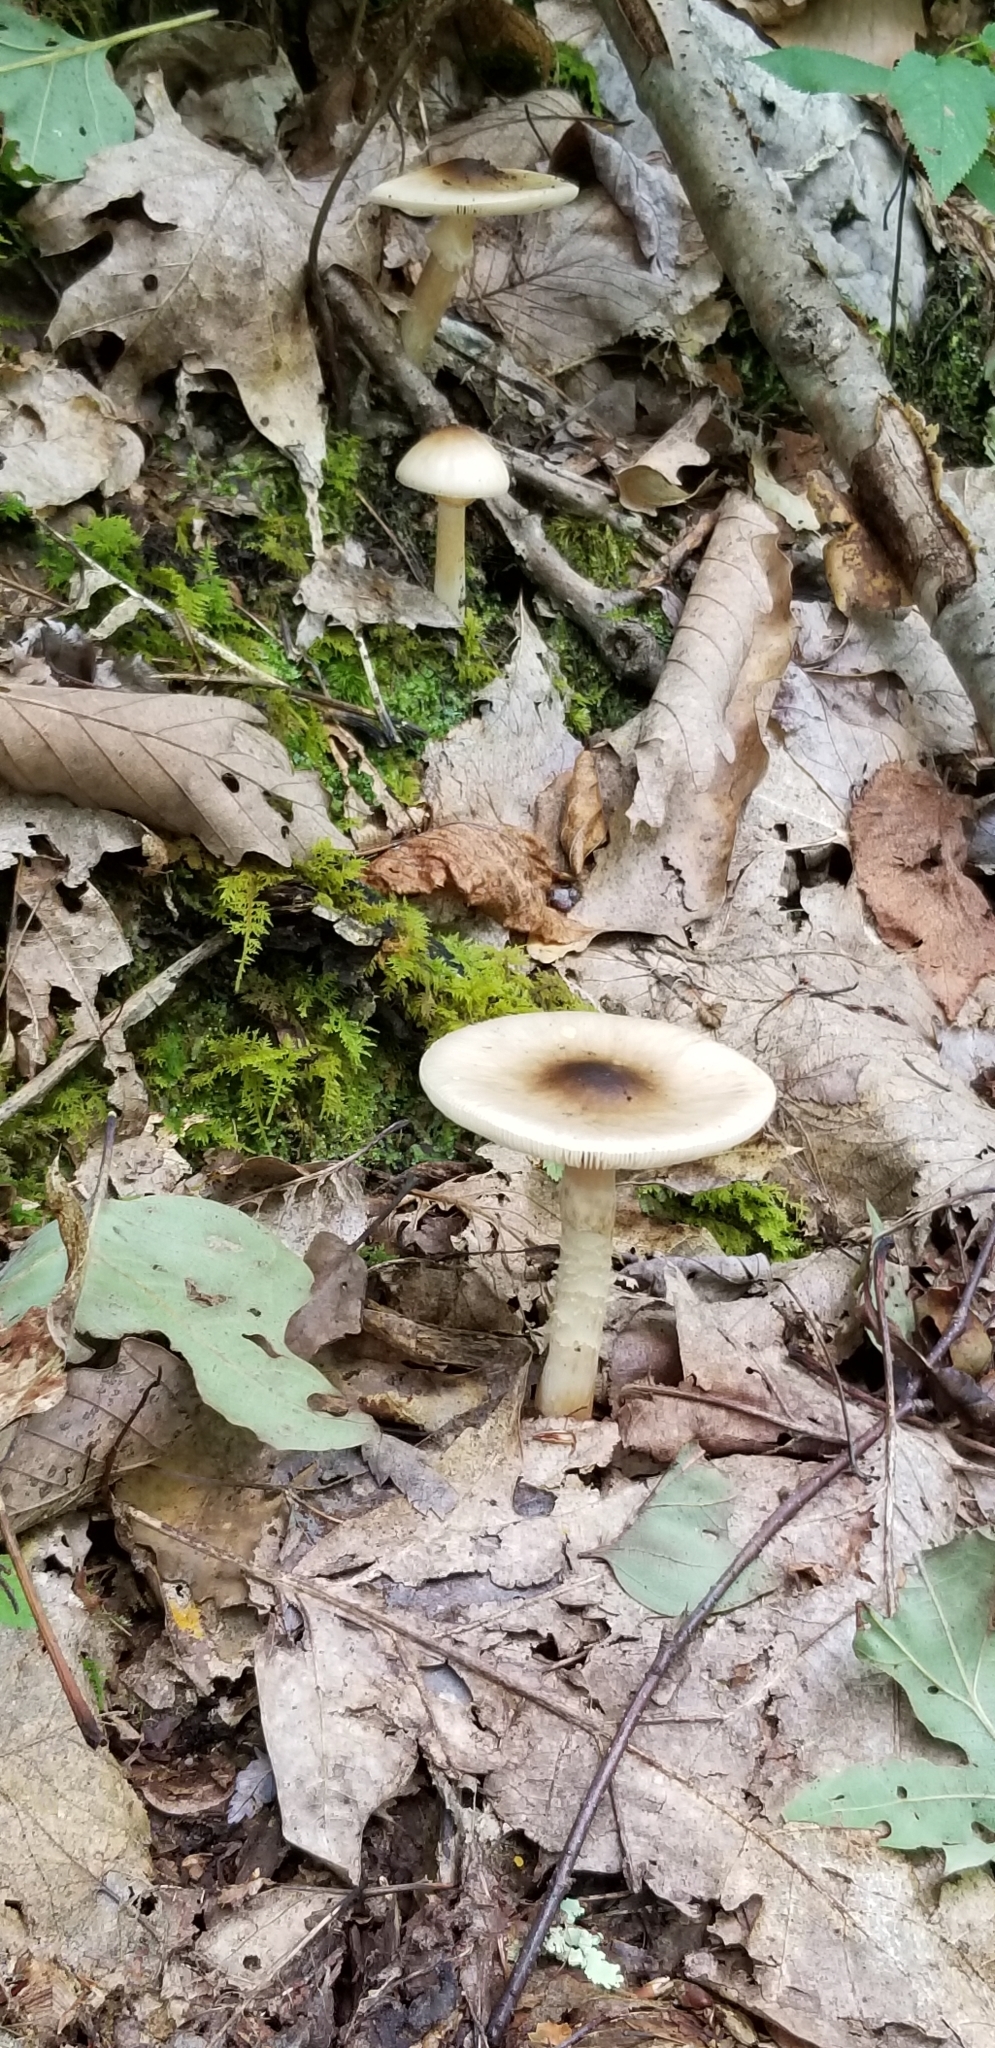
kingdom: Fungi
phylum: Basidiomycota
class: Agaricomycetes
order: Agaricales
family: Amanitaceae
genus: Amanita
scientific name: Amanita brunnescens
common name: Brown american star-footed amanita
